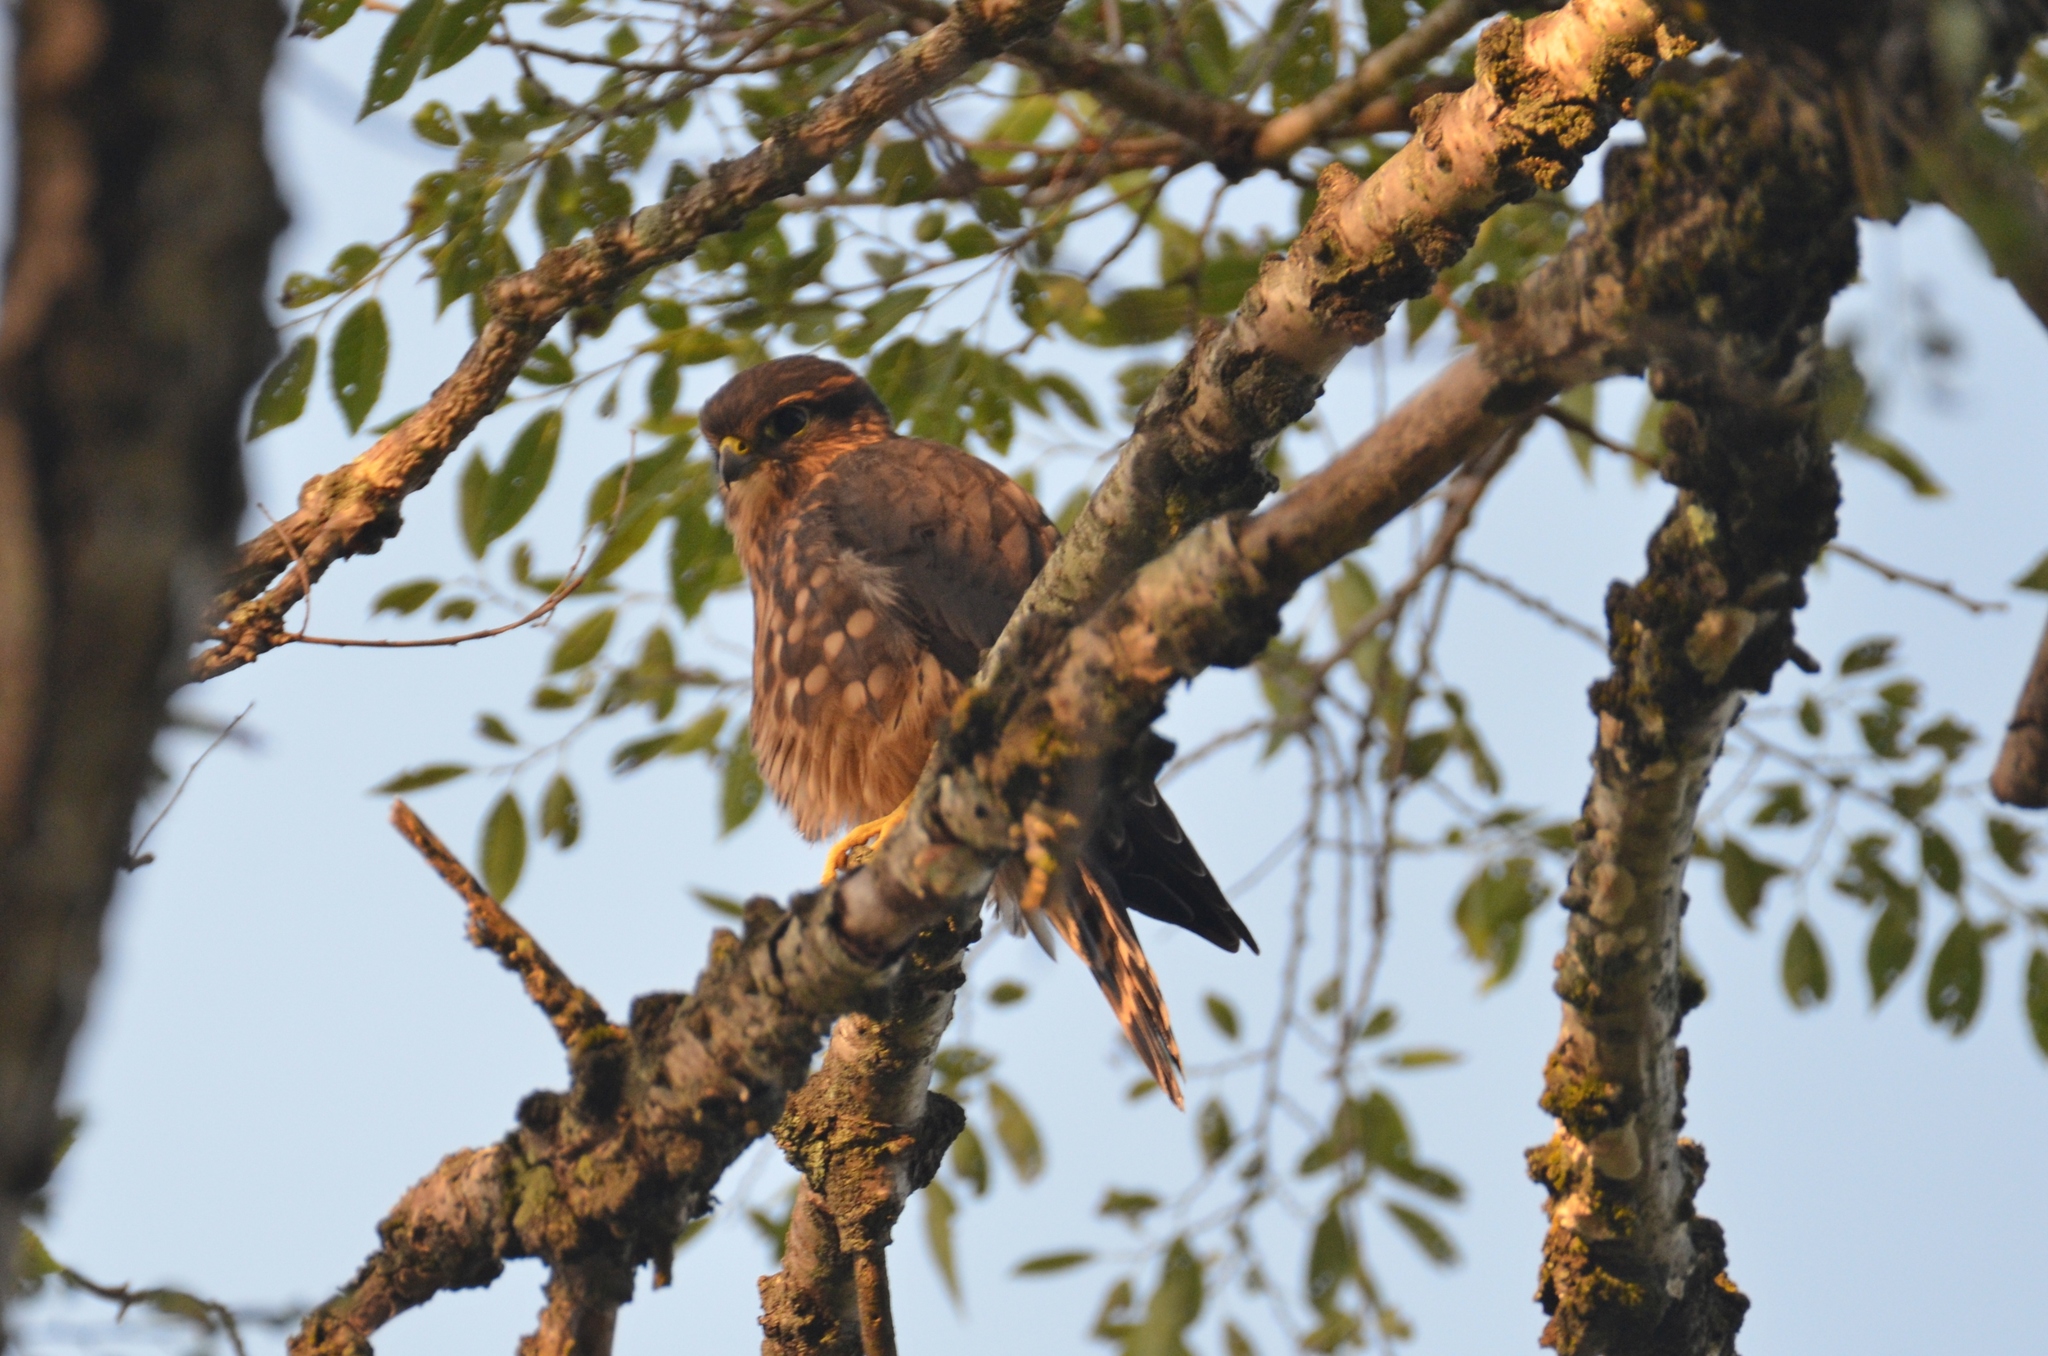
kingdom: Animalia
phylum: Chordata
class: Aves
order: Falconiformes
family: Falconidae
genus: Falco
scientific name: Falco columbarius
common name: Merlin
